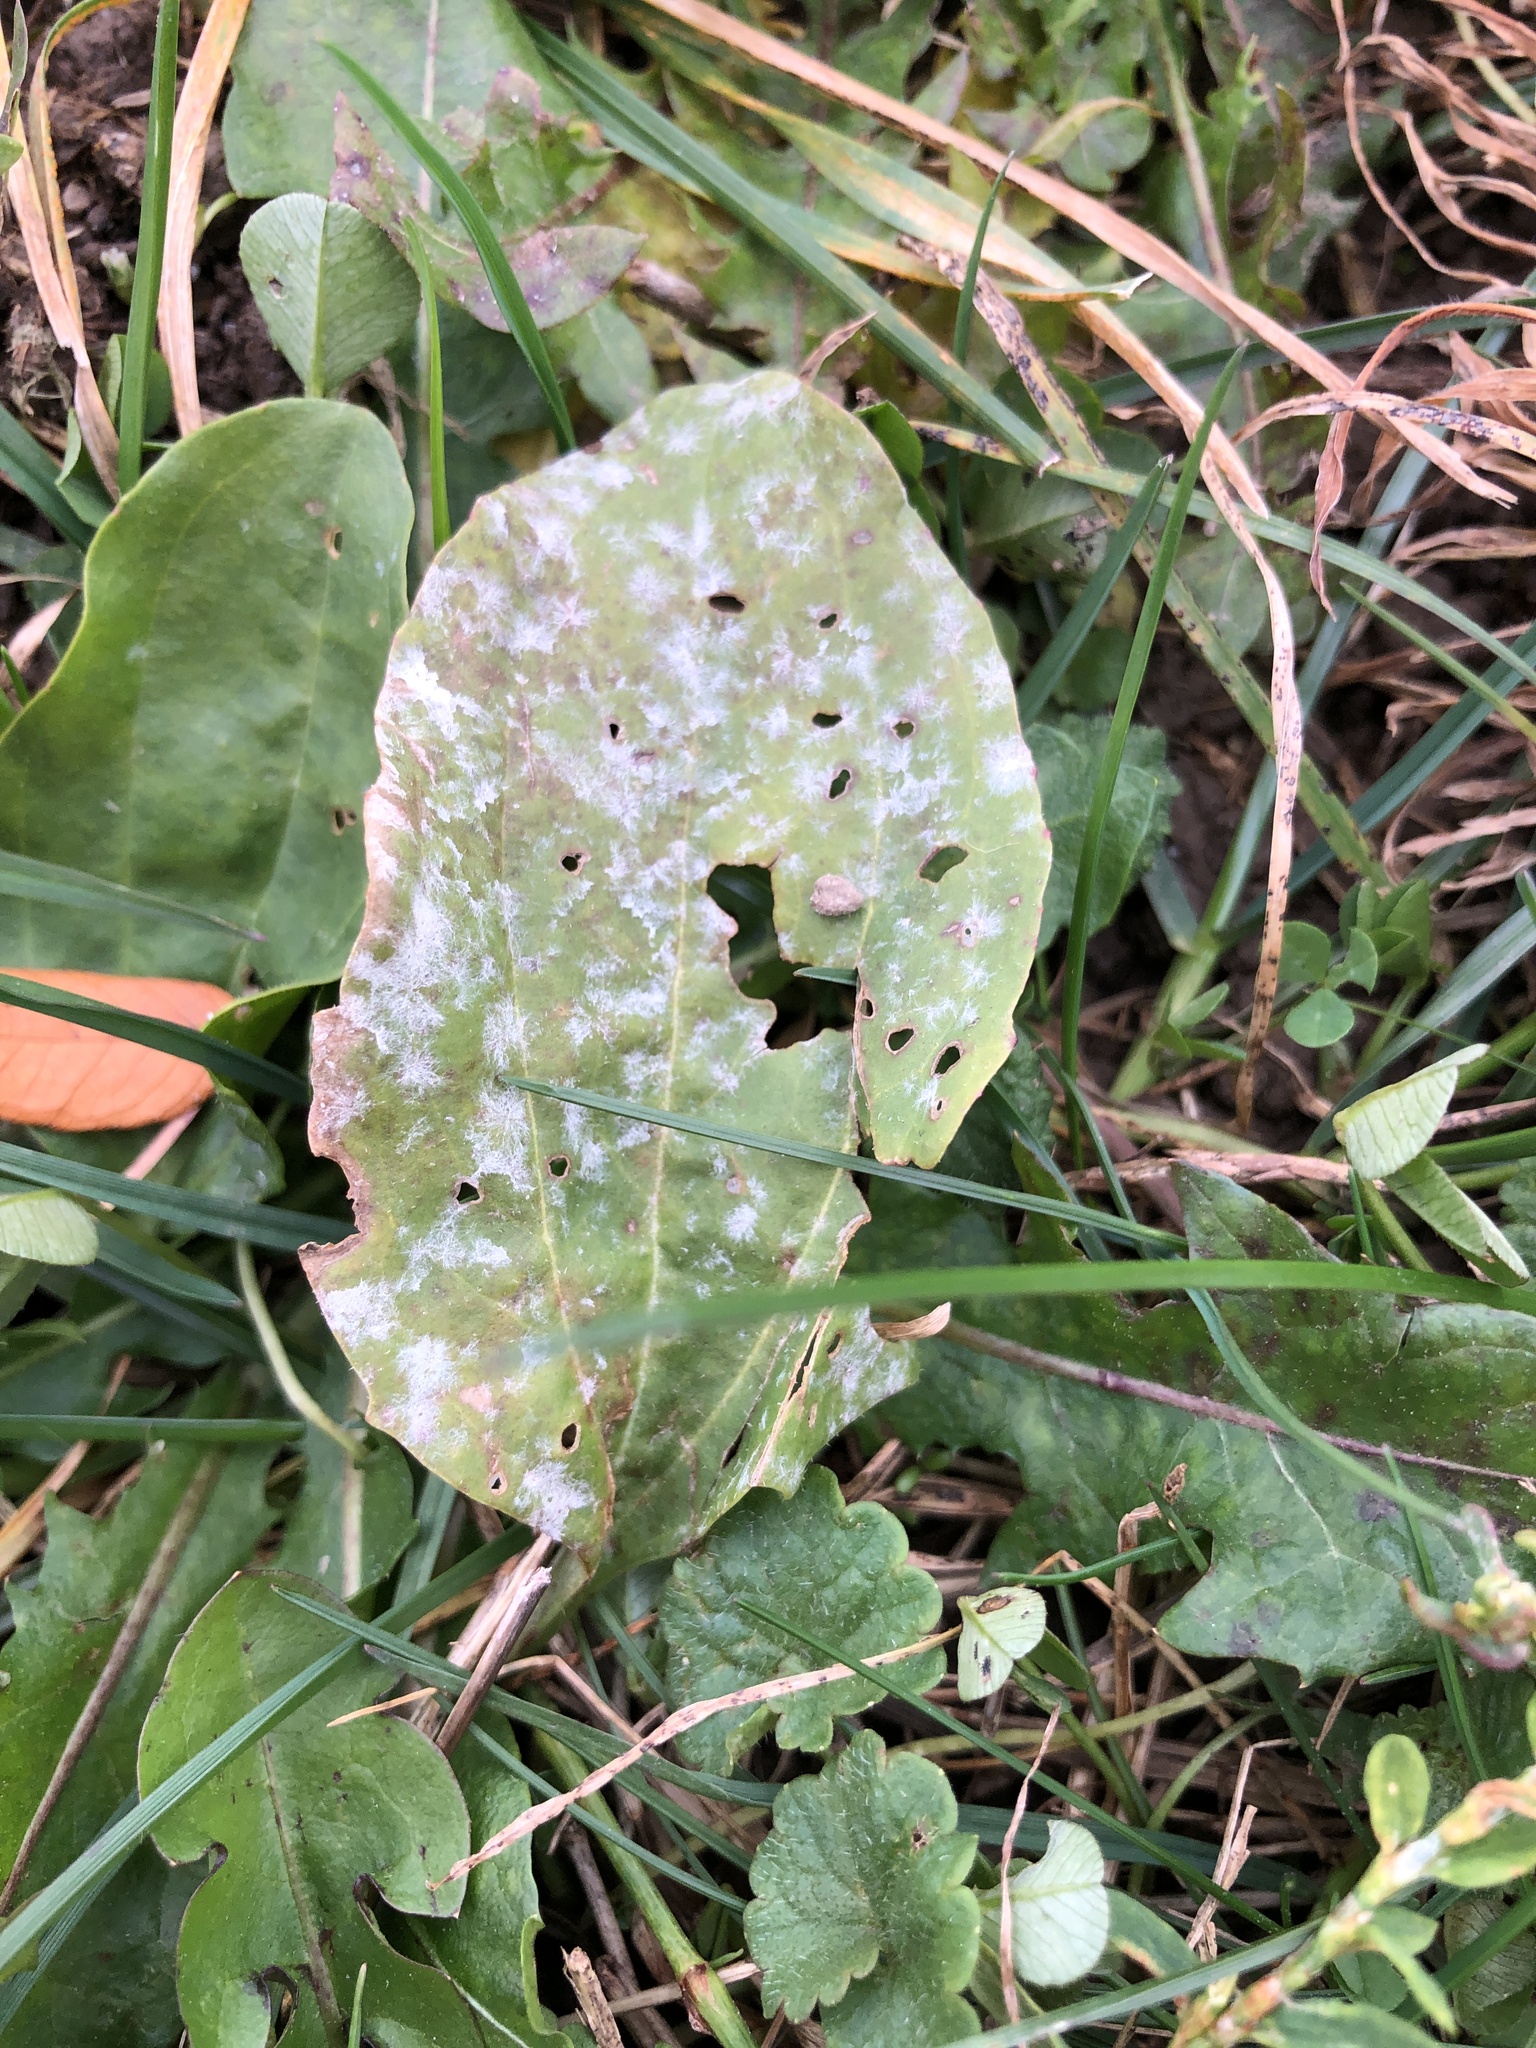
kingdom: Fungi
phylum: Ascomycota
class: Leotiomycetes
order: Helotiales
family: Erysiphaceae
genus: Golovinomyces
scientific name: Golovinomyces sordidus
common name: Plantain mildew
